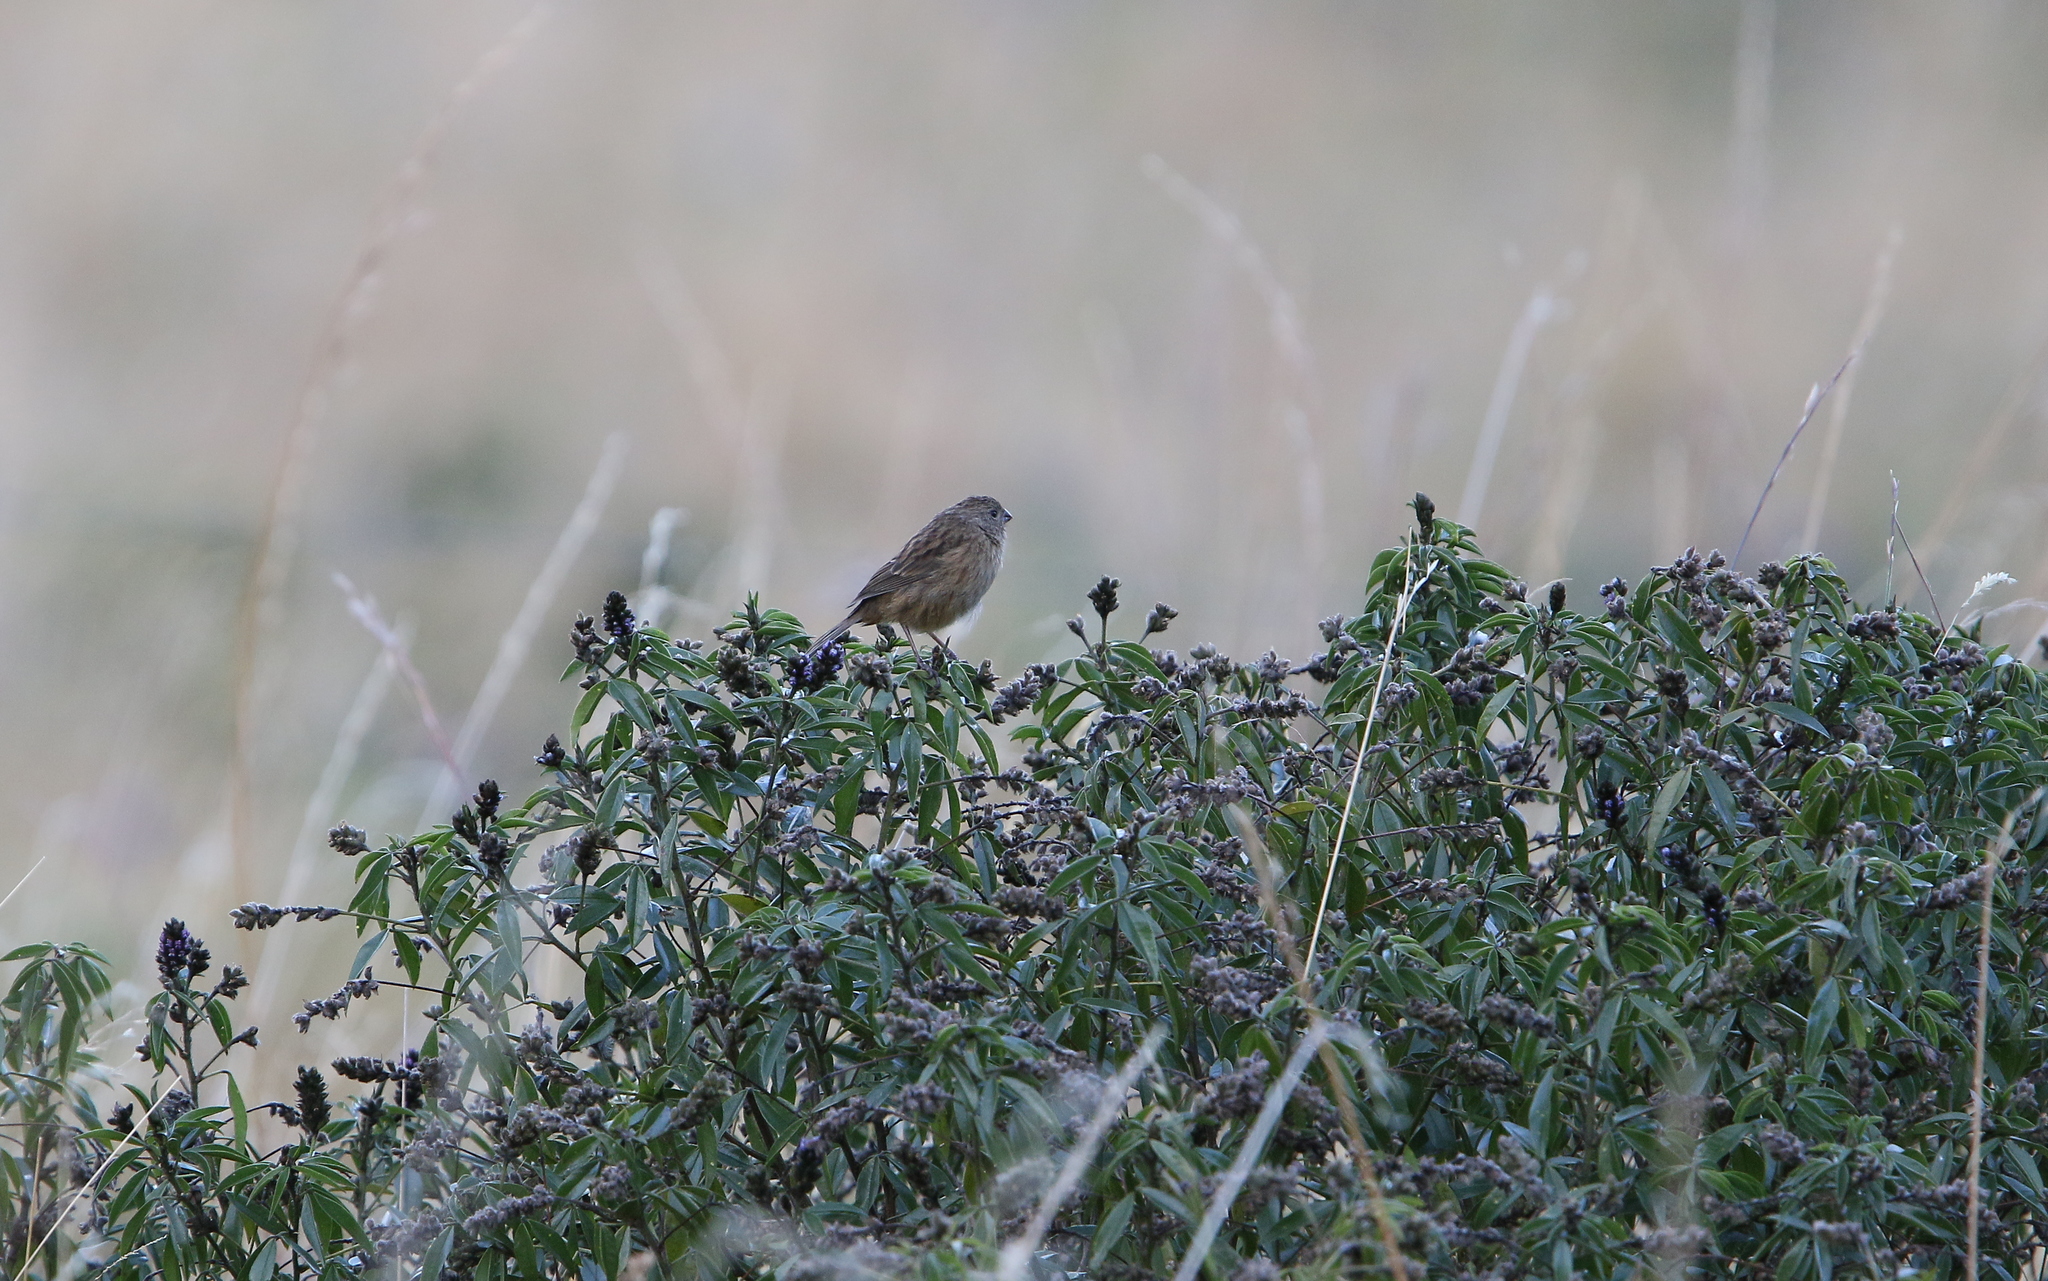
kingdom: Animalia
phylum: Chordata
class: Aves
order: Passeriformes
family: Thraupidae
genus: Catamenia
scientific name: Catamenia inornata
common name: Plain-colored seedeater
